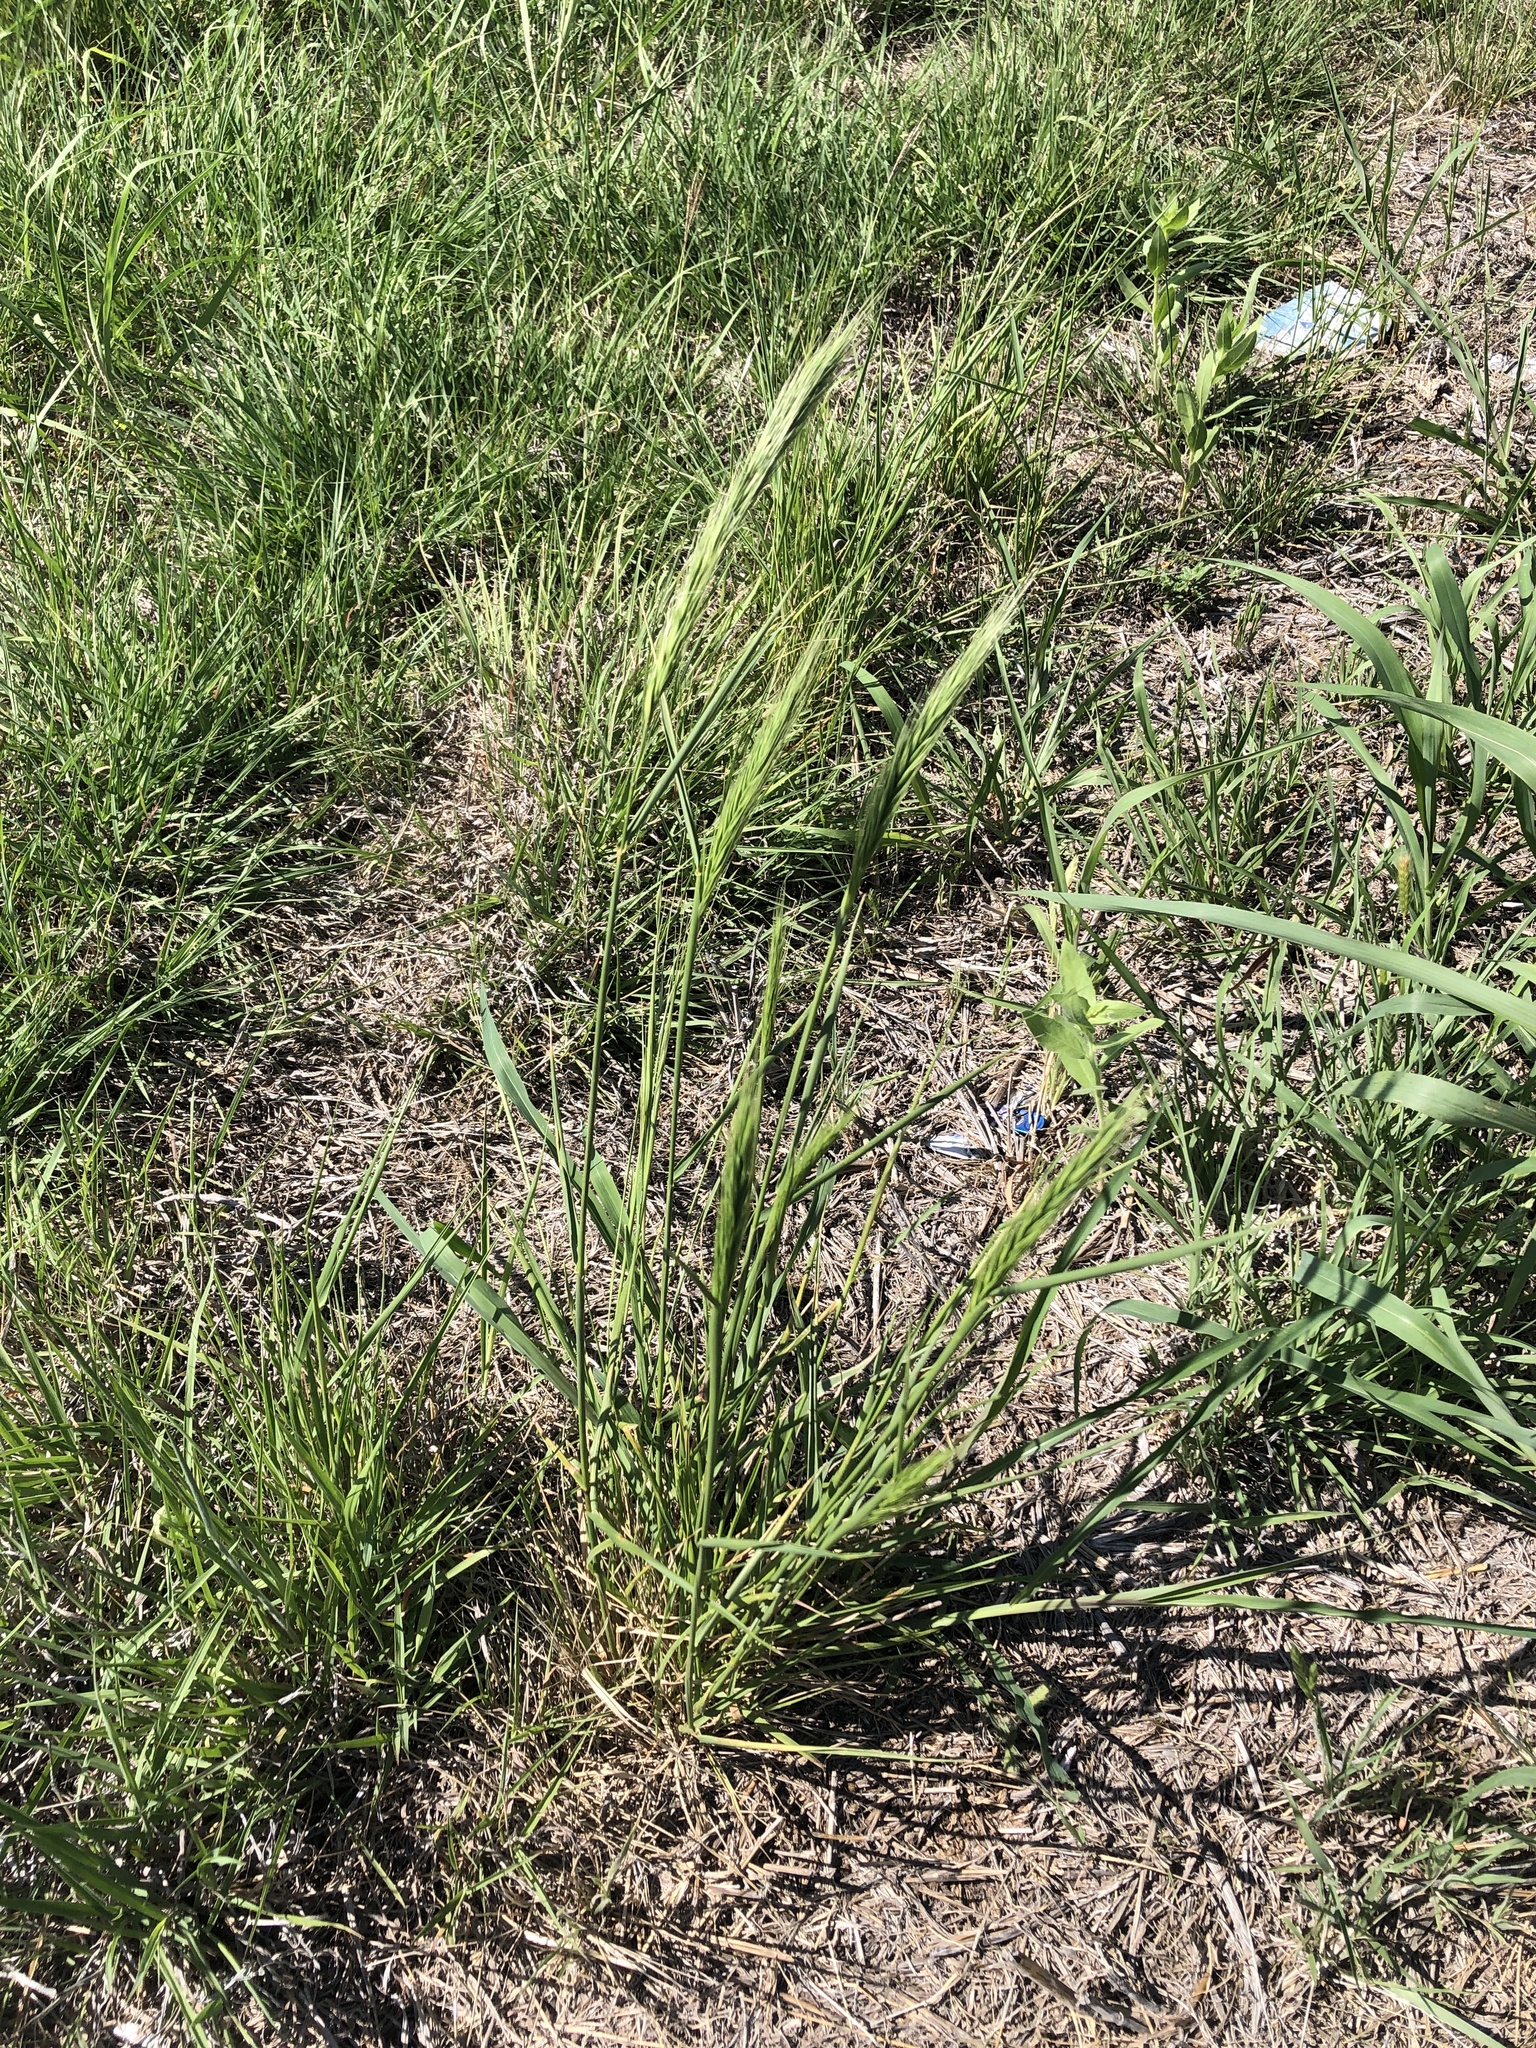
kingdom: Plantae
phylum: Tracheophyta
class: Liliopsida
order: Poales
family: Poaceae
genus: Elymus
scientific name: Elymus canadensis
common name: Canada wild rye
